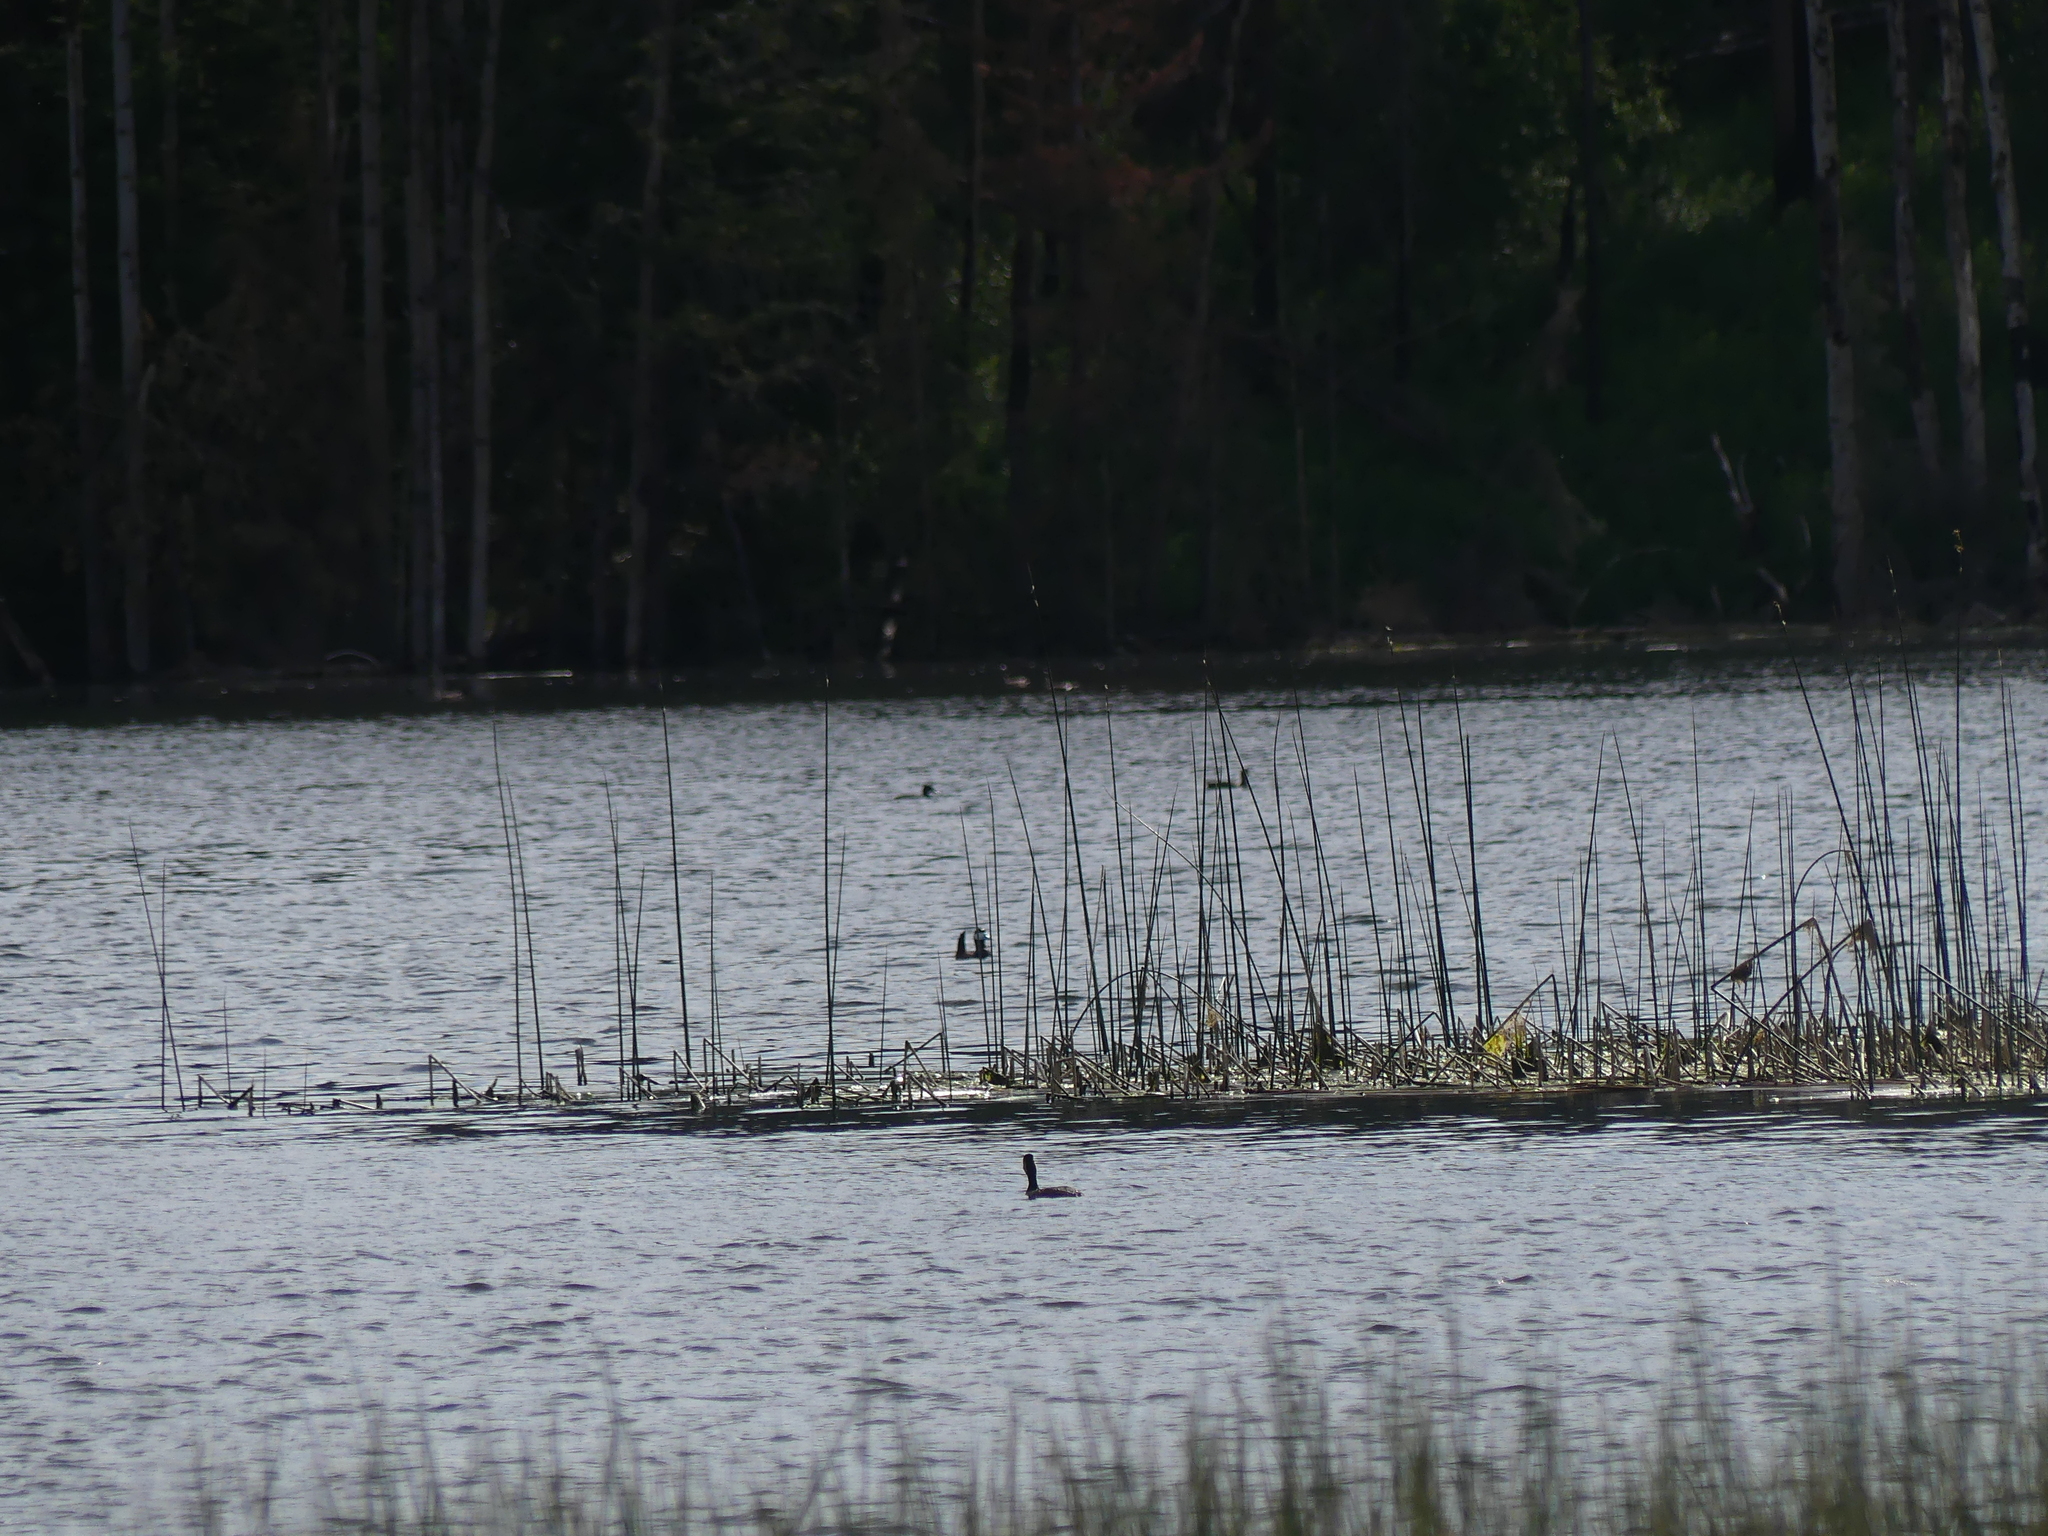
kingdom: Animalia
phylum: Chordata
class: Aves
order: Anseriformes
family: Anatidae
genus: Oxyura
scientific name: Oxyura jamaicensis
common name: Ruddy duck
